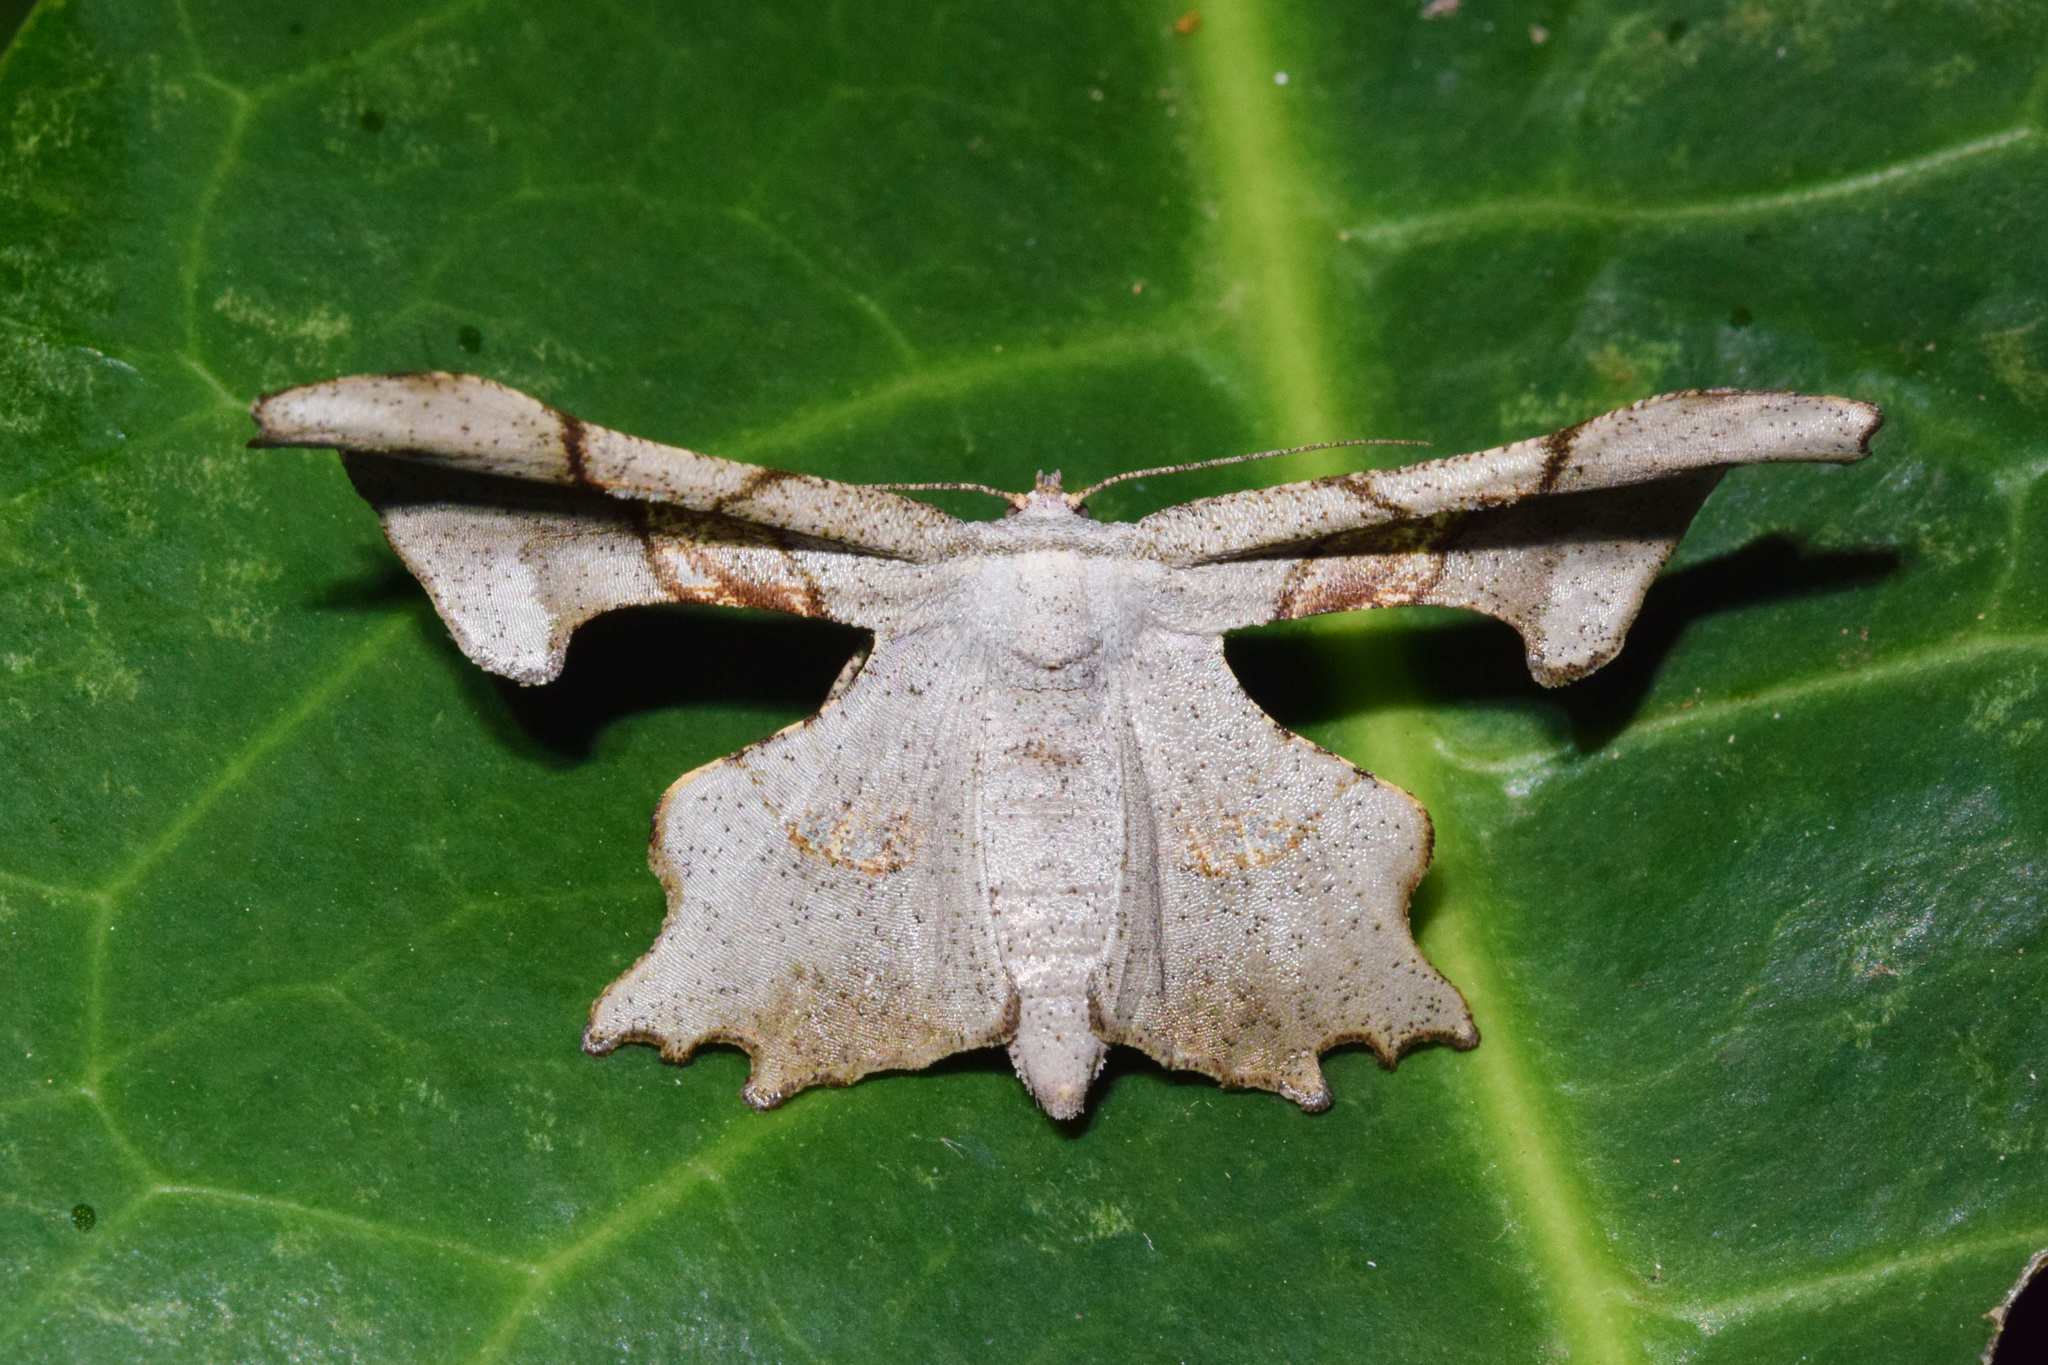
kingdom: Animalia
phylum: Arthropoda
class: Insecta
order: Lepidoptera
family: Geometridae
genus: Xenimpia
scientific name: Xenimpia erosa
